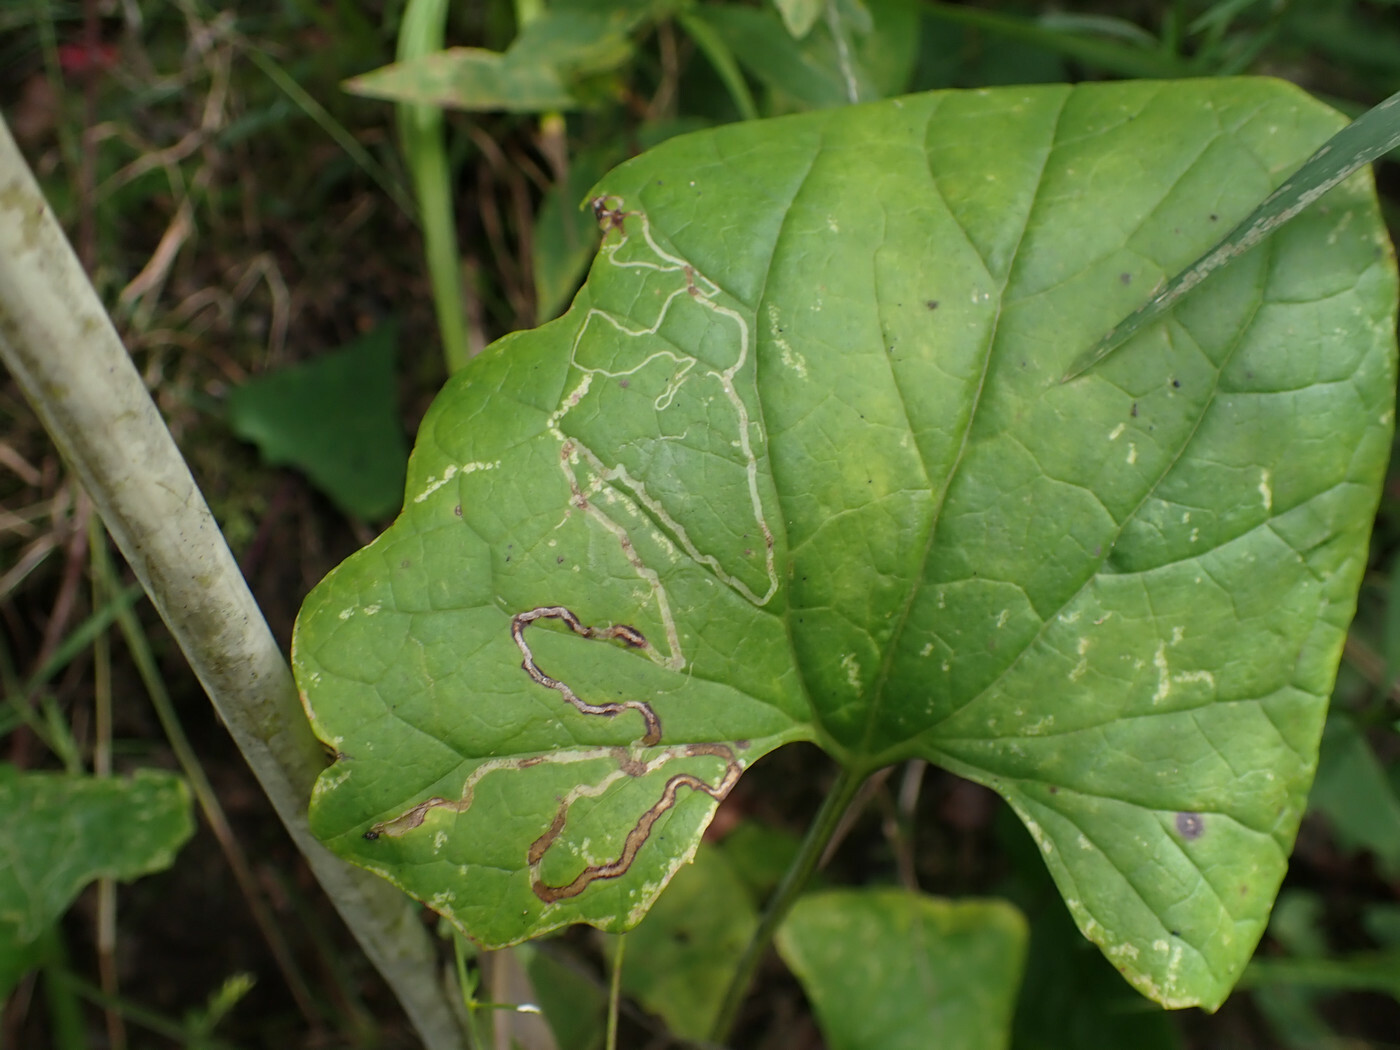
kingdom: Animalia
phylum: Arthropoda
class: Insecta
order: Lepidoptera
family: Gracillariidae
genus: Phyllocnistis
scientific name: Phyllocnistis insignis
